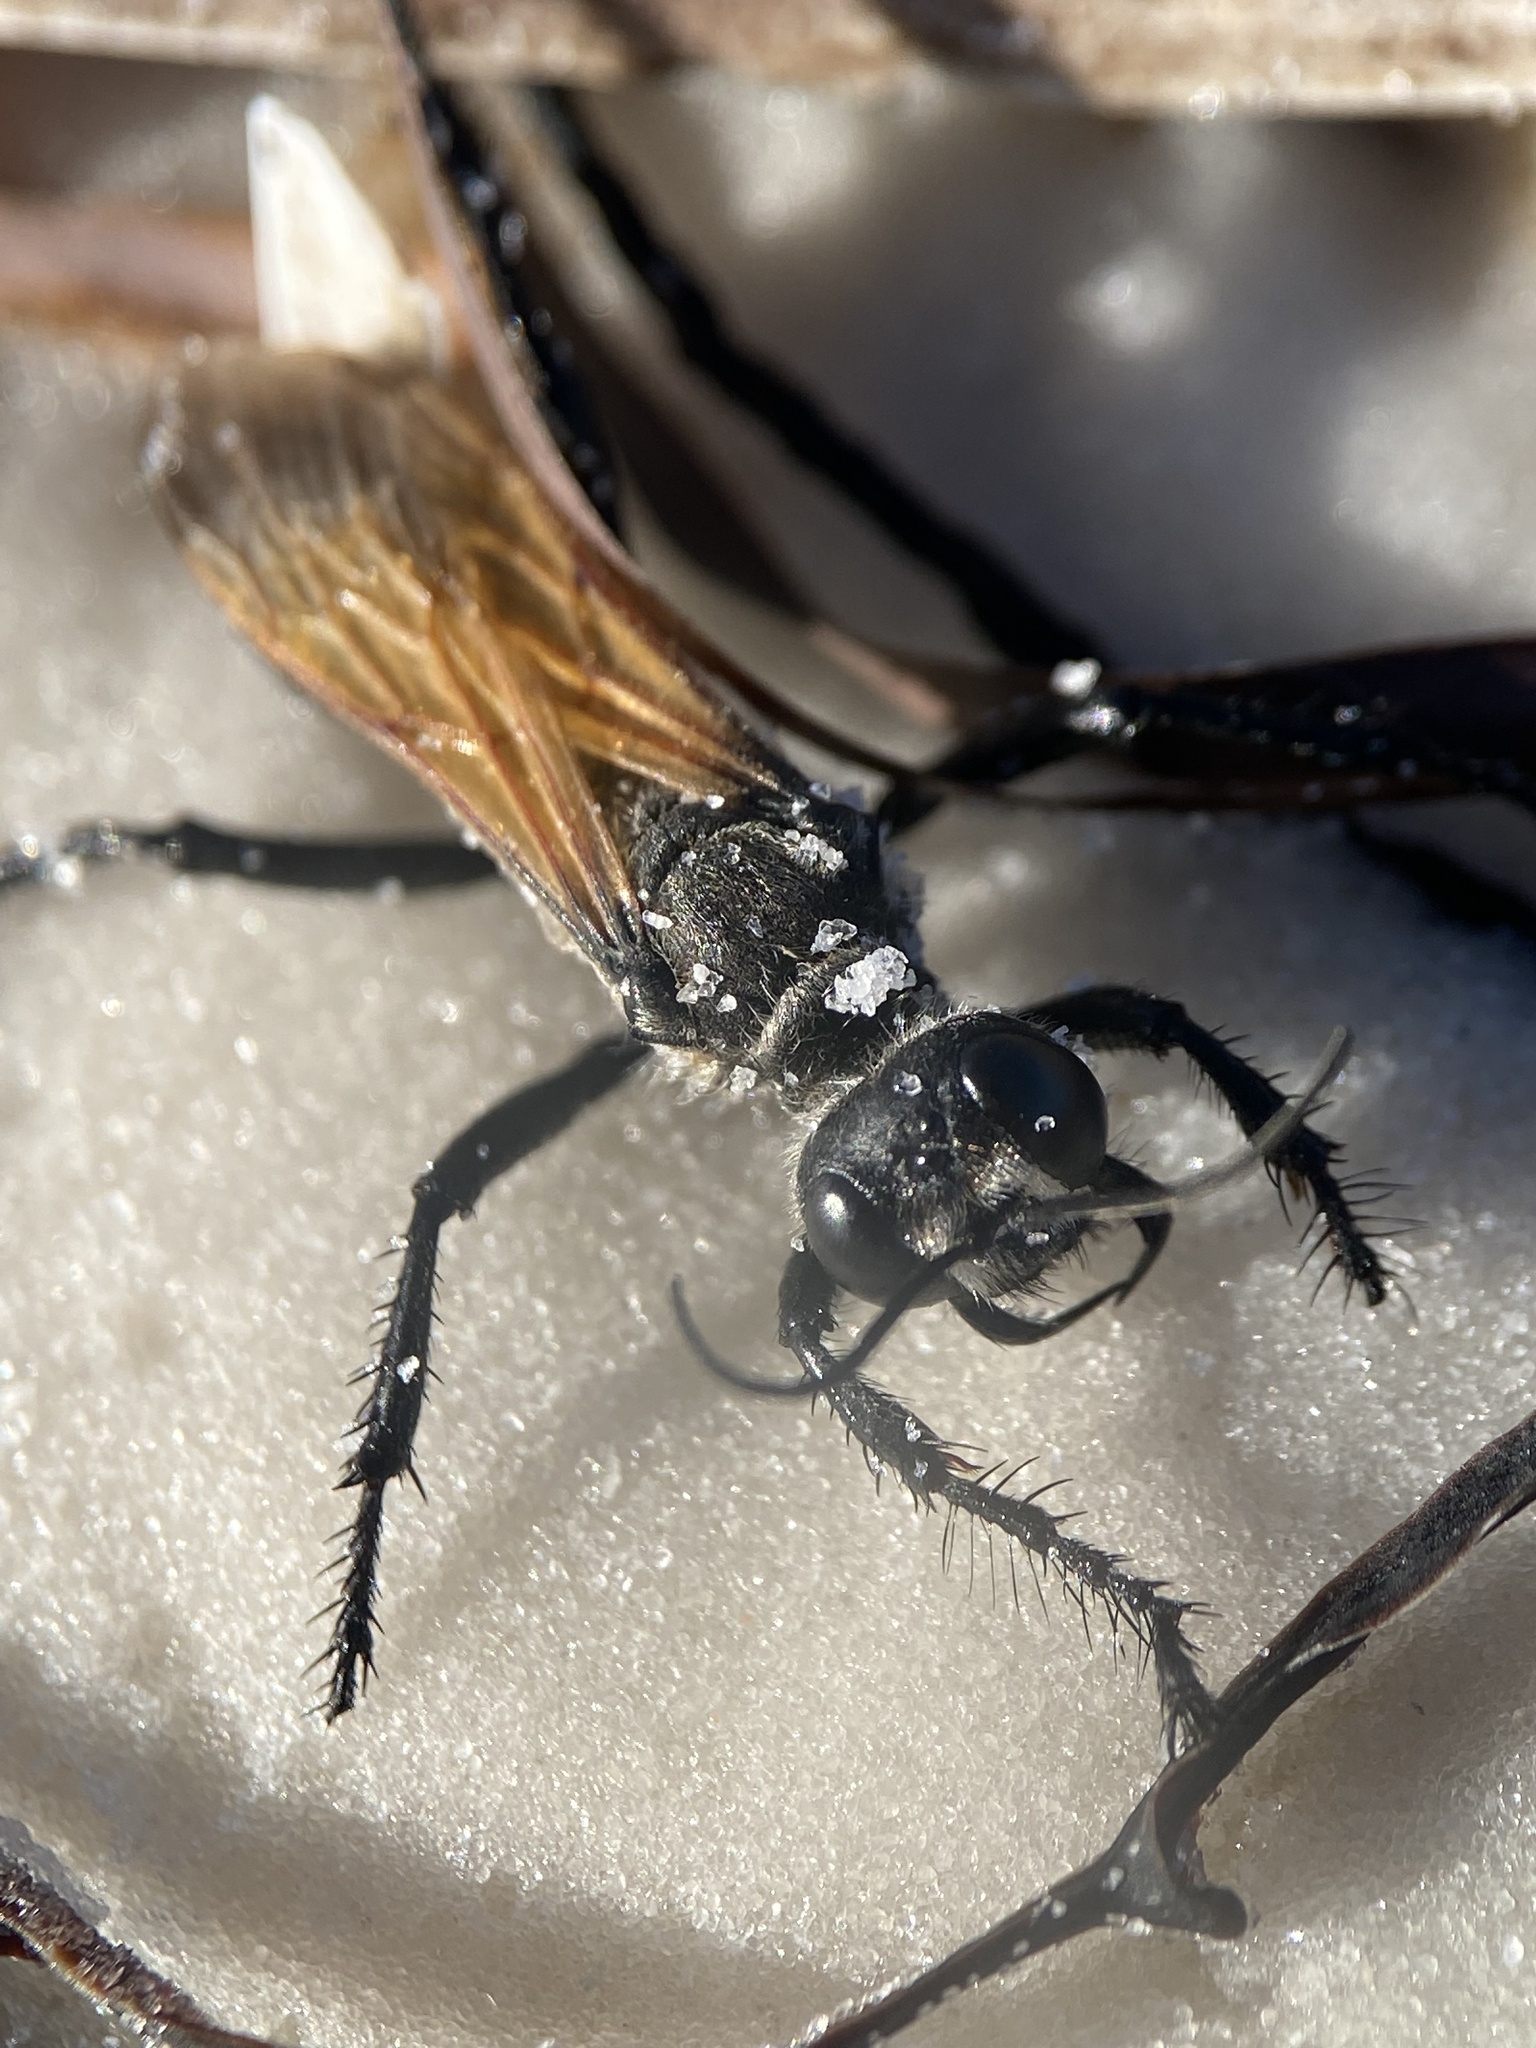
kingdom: Animalia
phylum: Arthropoda
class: Insecta
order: Hymenoptera
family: Sphecidae
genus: Prionyx
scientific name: Prionyx saevus
